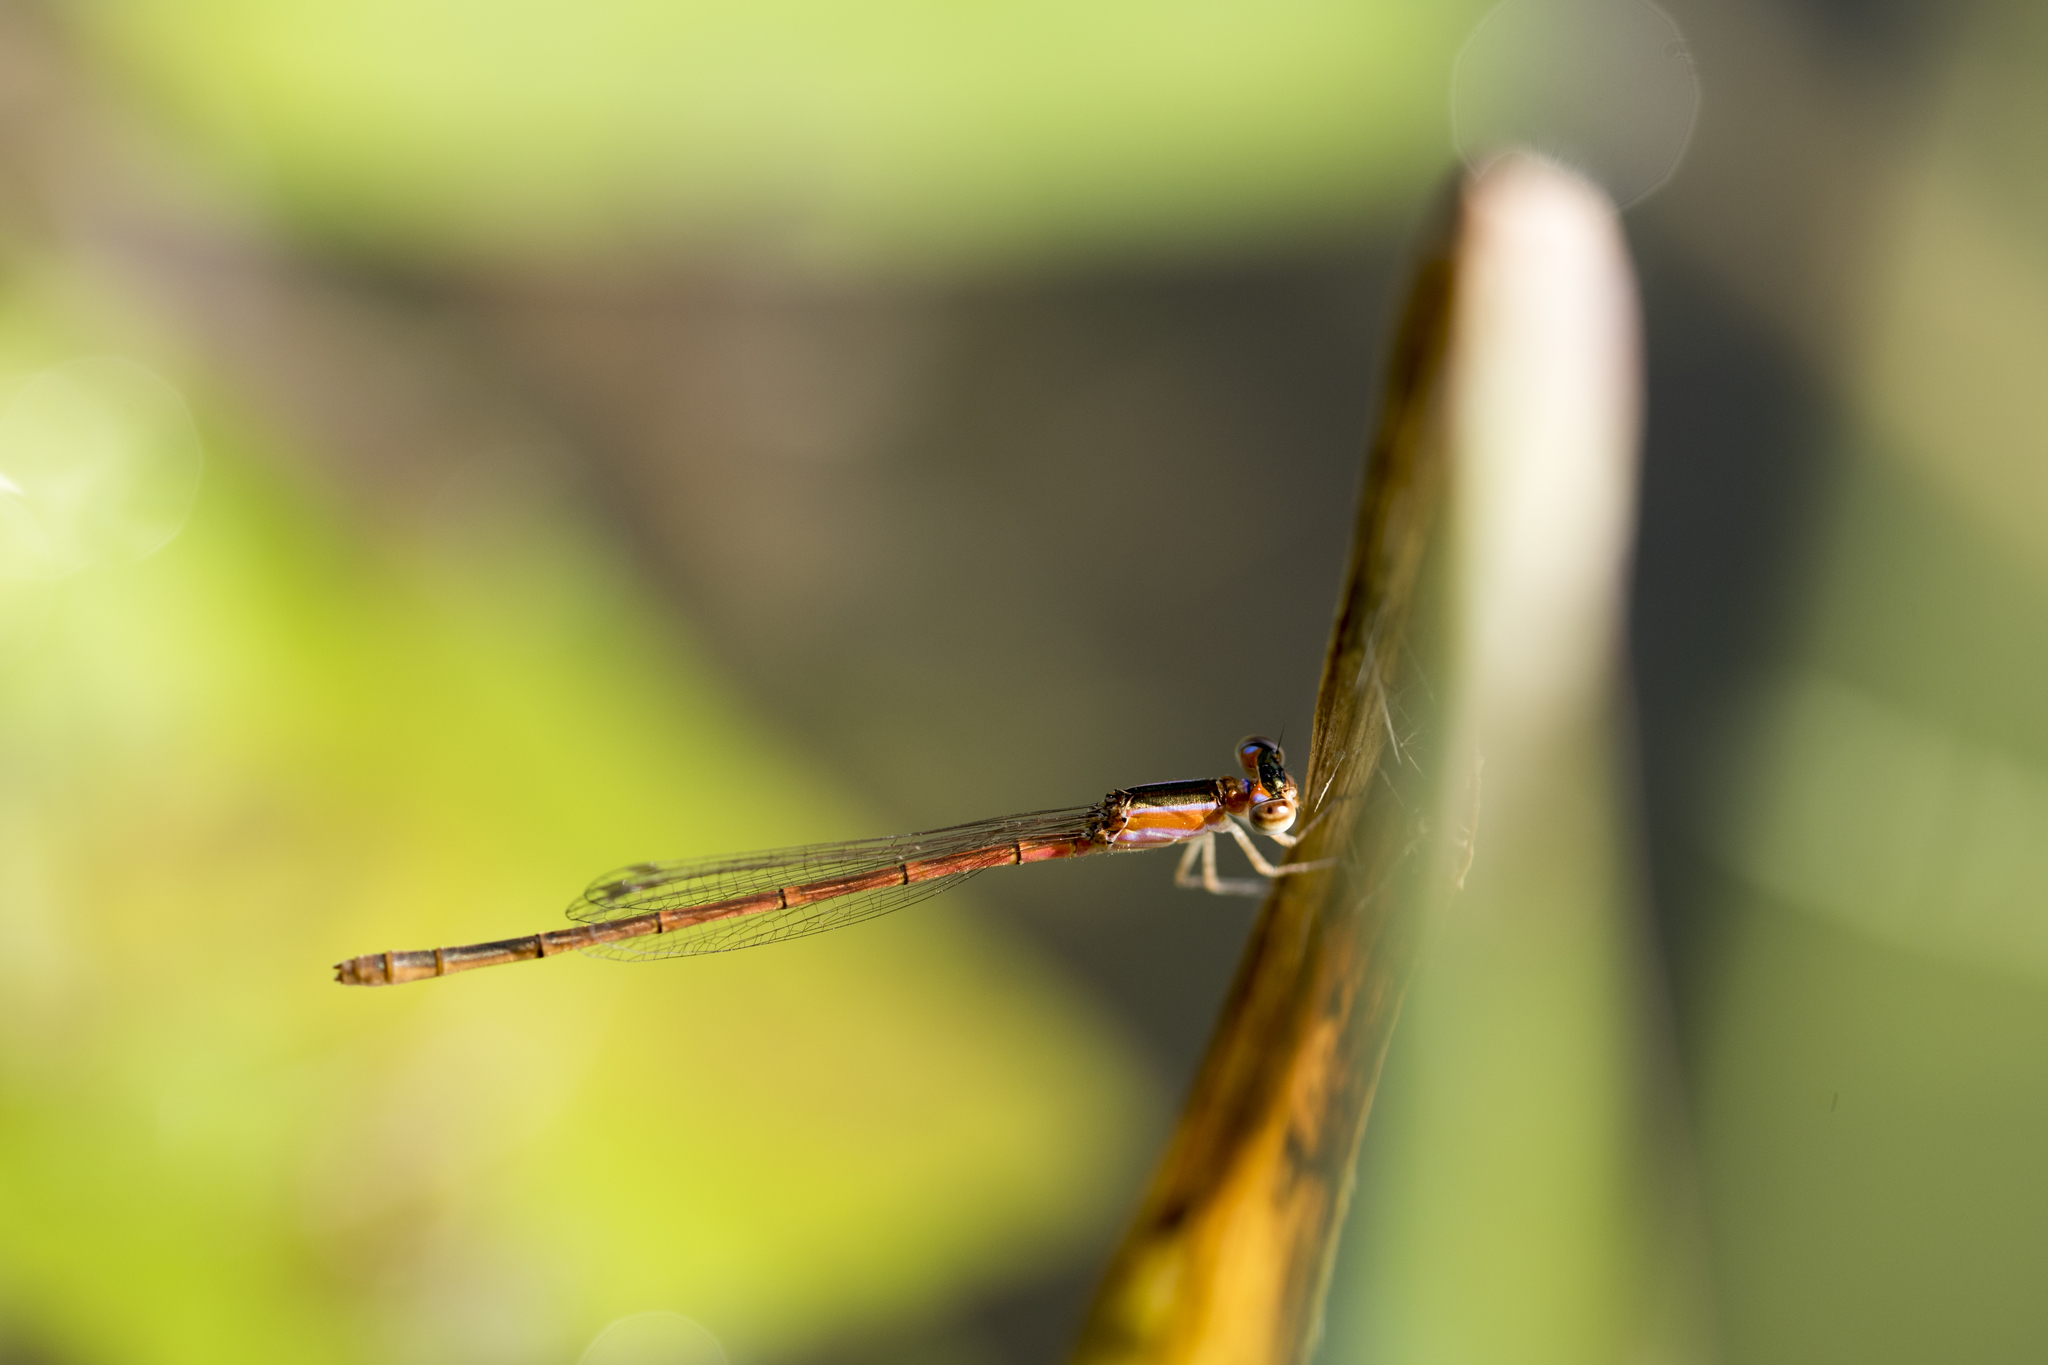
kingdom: Animalia
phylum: Arthropoda
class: Insecta
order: Odonata
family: Coenagrionidae
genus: Agriocnemis
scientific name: Agriocnemis pygmaea
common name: Pygmy wisp
